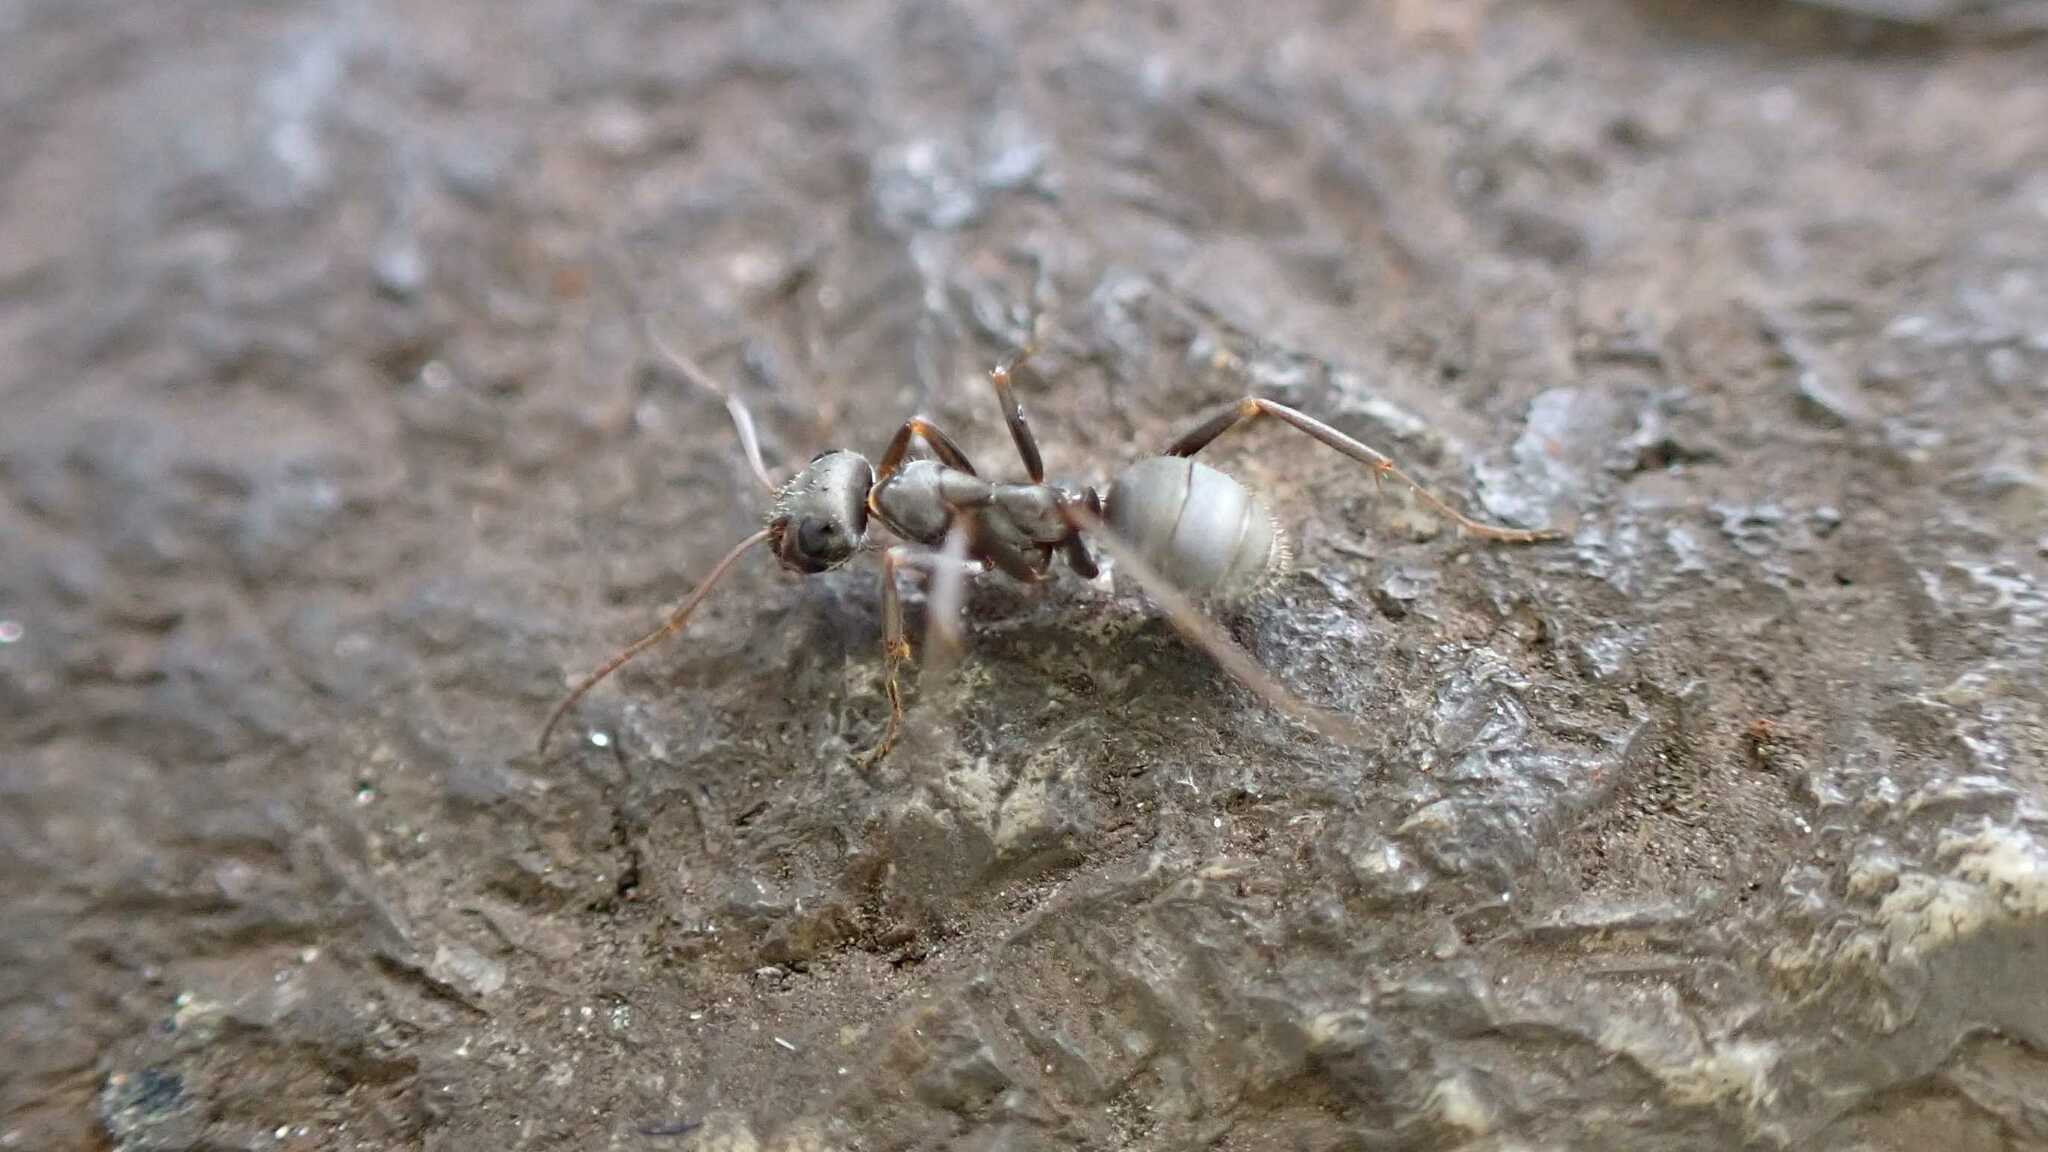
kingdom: Animalia
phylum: Arthropoda
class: Insecta
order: Hymenoptera
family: Formicidae
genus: Formica
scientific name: Formica cinerea
